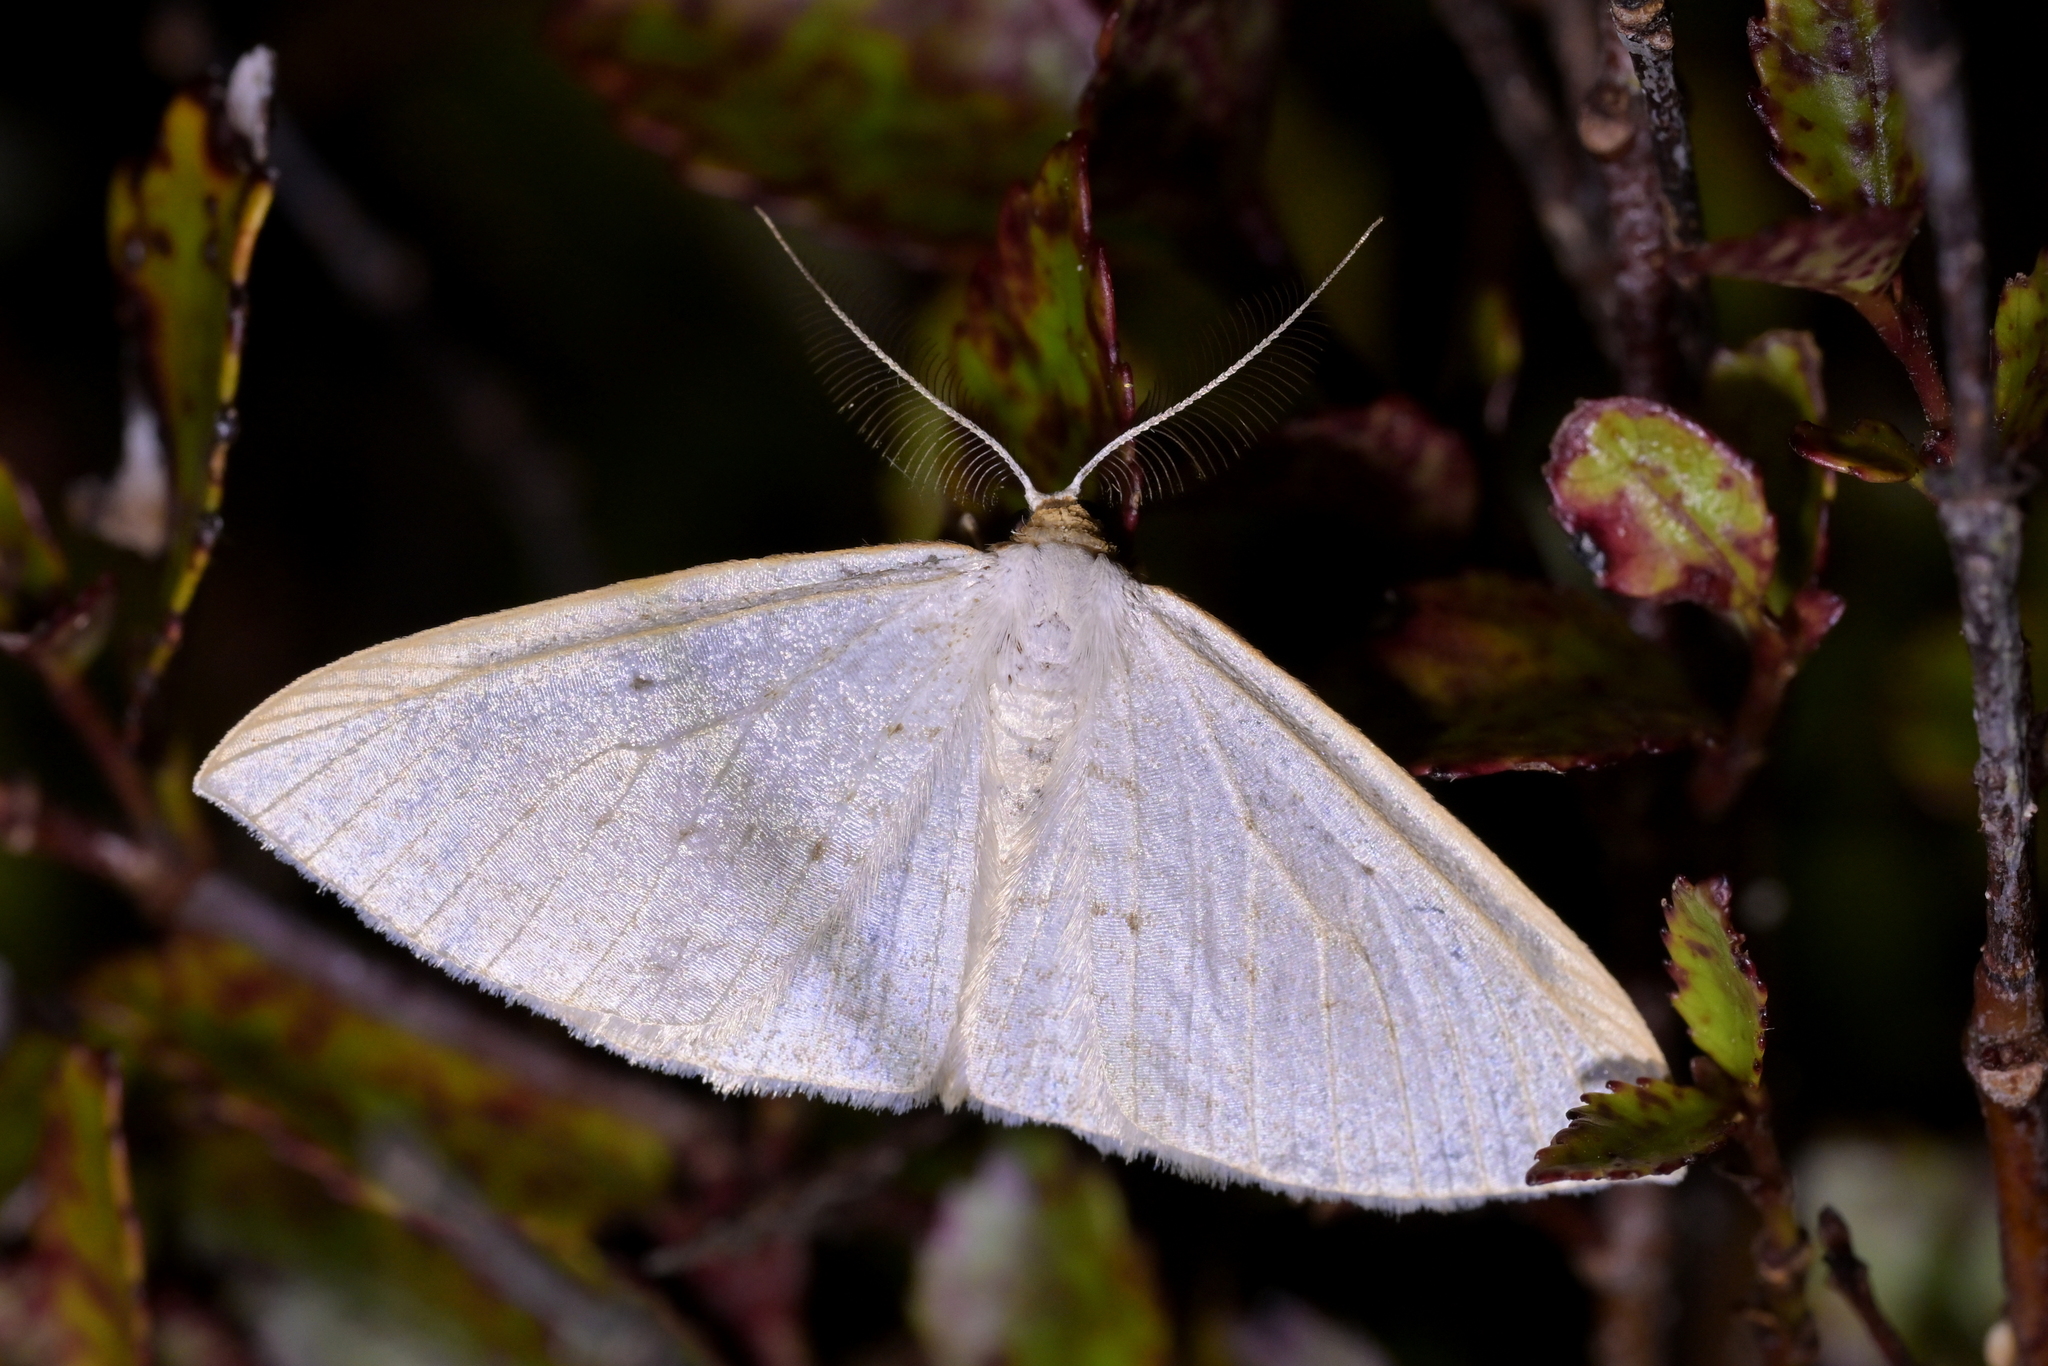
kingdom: Animalia
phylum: Arthropoda
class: Insecta
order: Lepidoptera
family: Geometridae
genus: Orthoclydon
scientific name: Orthoclydon praefectata
